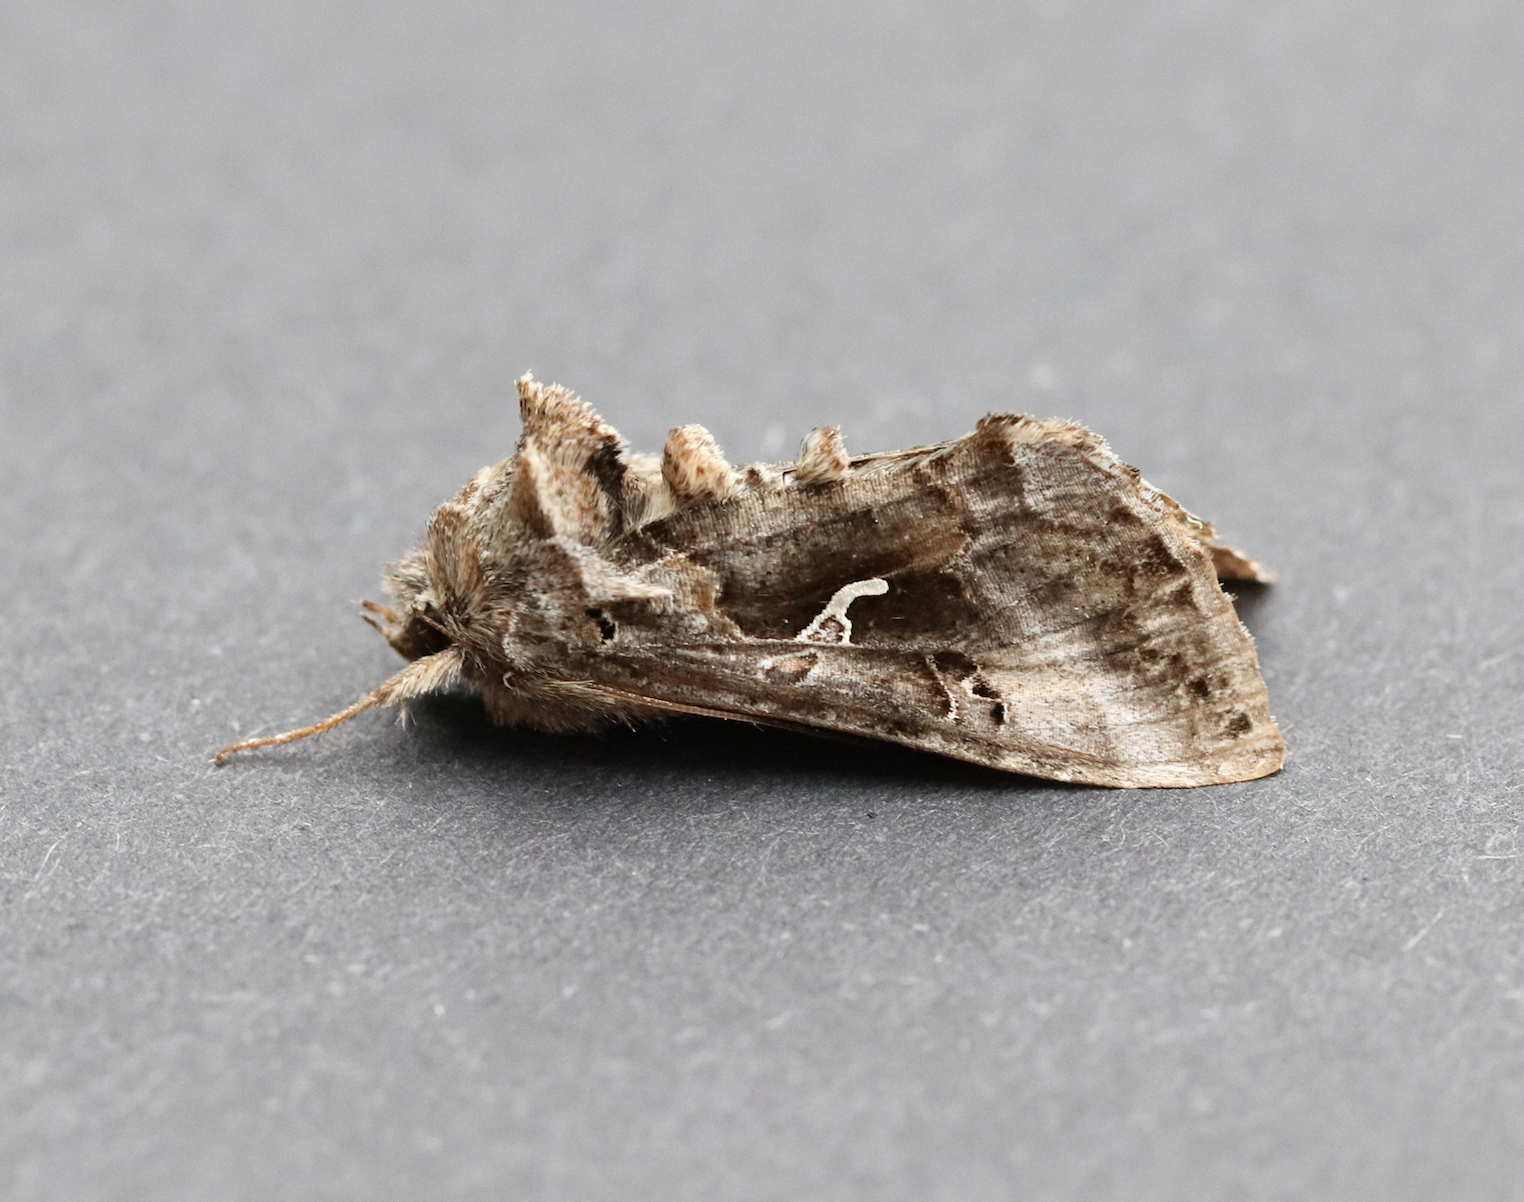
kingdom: Animalia
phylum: Arthropoda
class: Insecta
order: Lepidoptera
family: Noctuidae
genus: Autographa
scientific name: Autographa gamma
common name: Silver y
